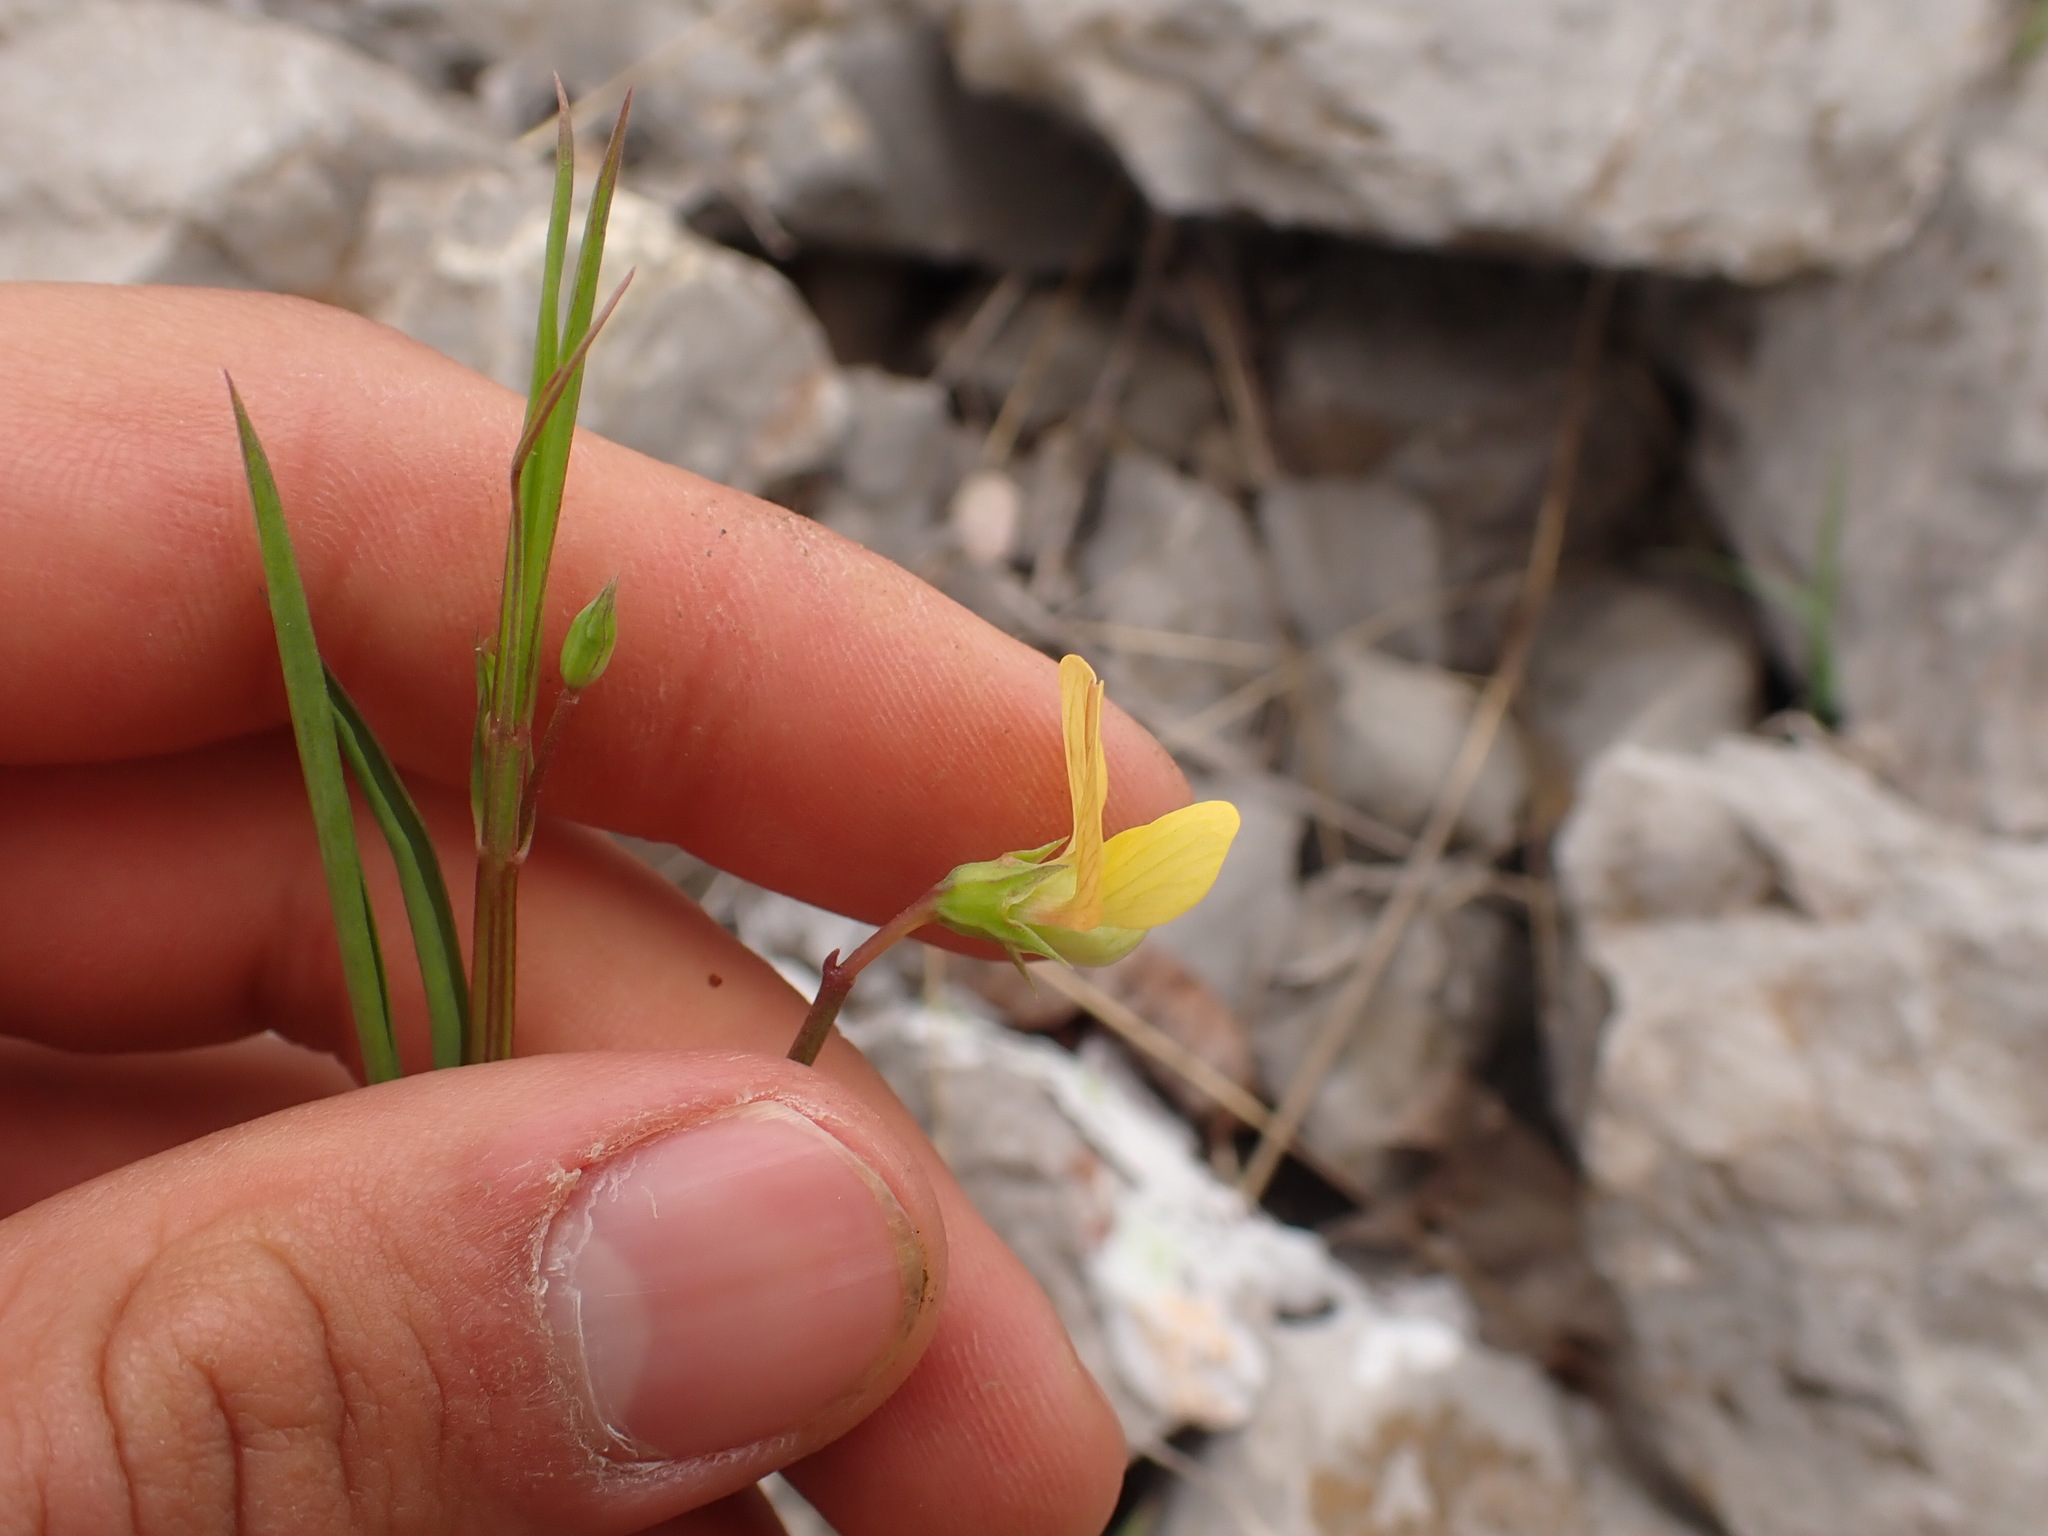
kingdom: Plantae
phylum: Tracheophyta
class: Magnoliopsida
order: Fabales
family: Fabaceae
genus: Lathyrus
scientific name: Lathyrus annuus
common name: Fodder pea
